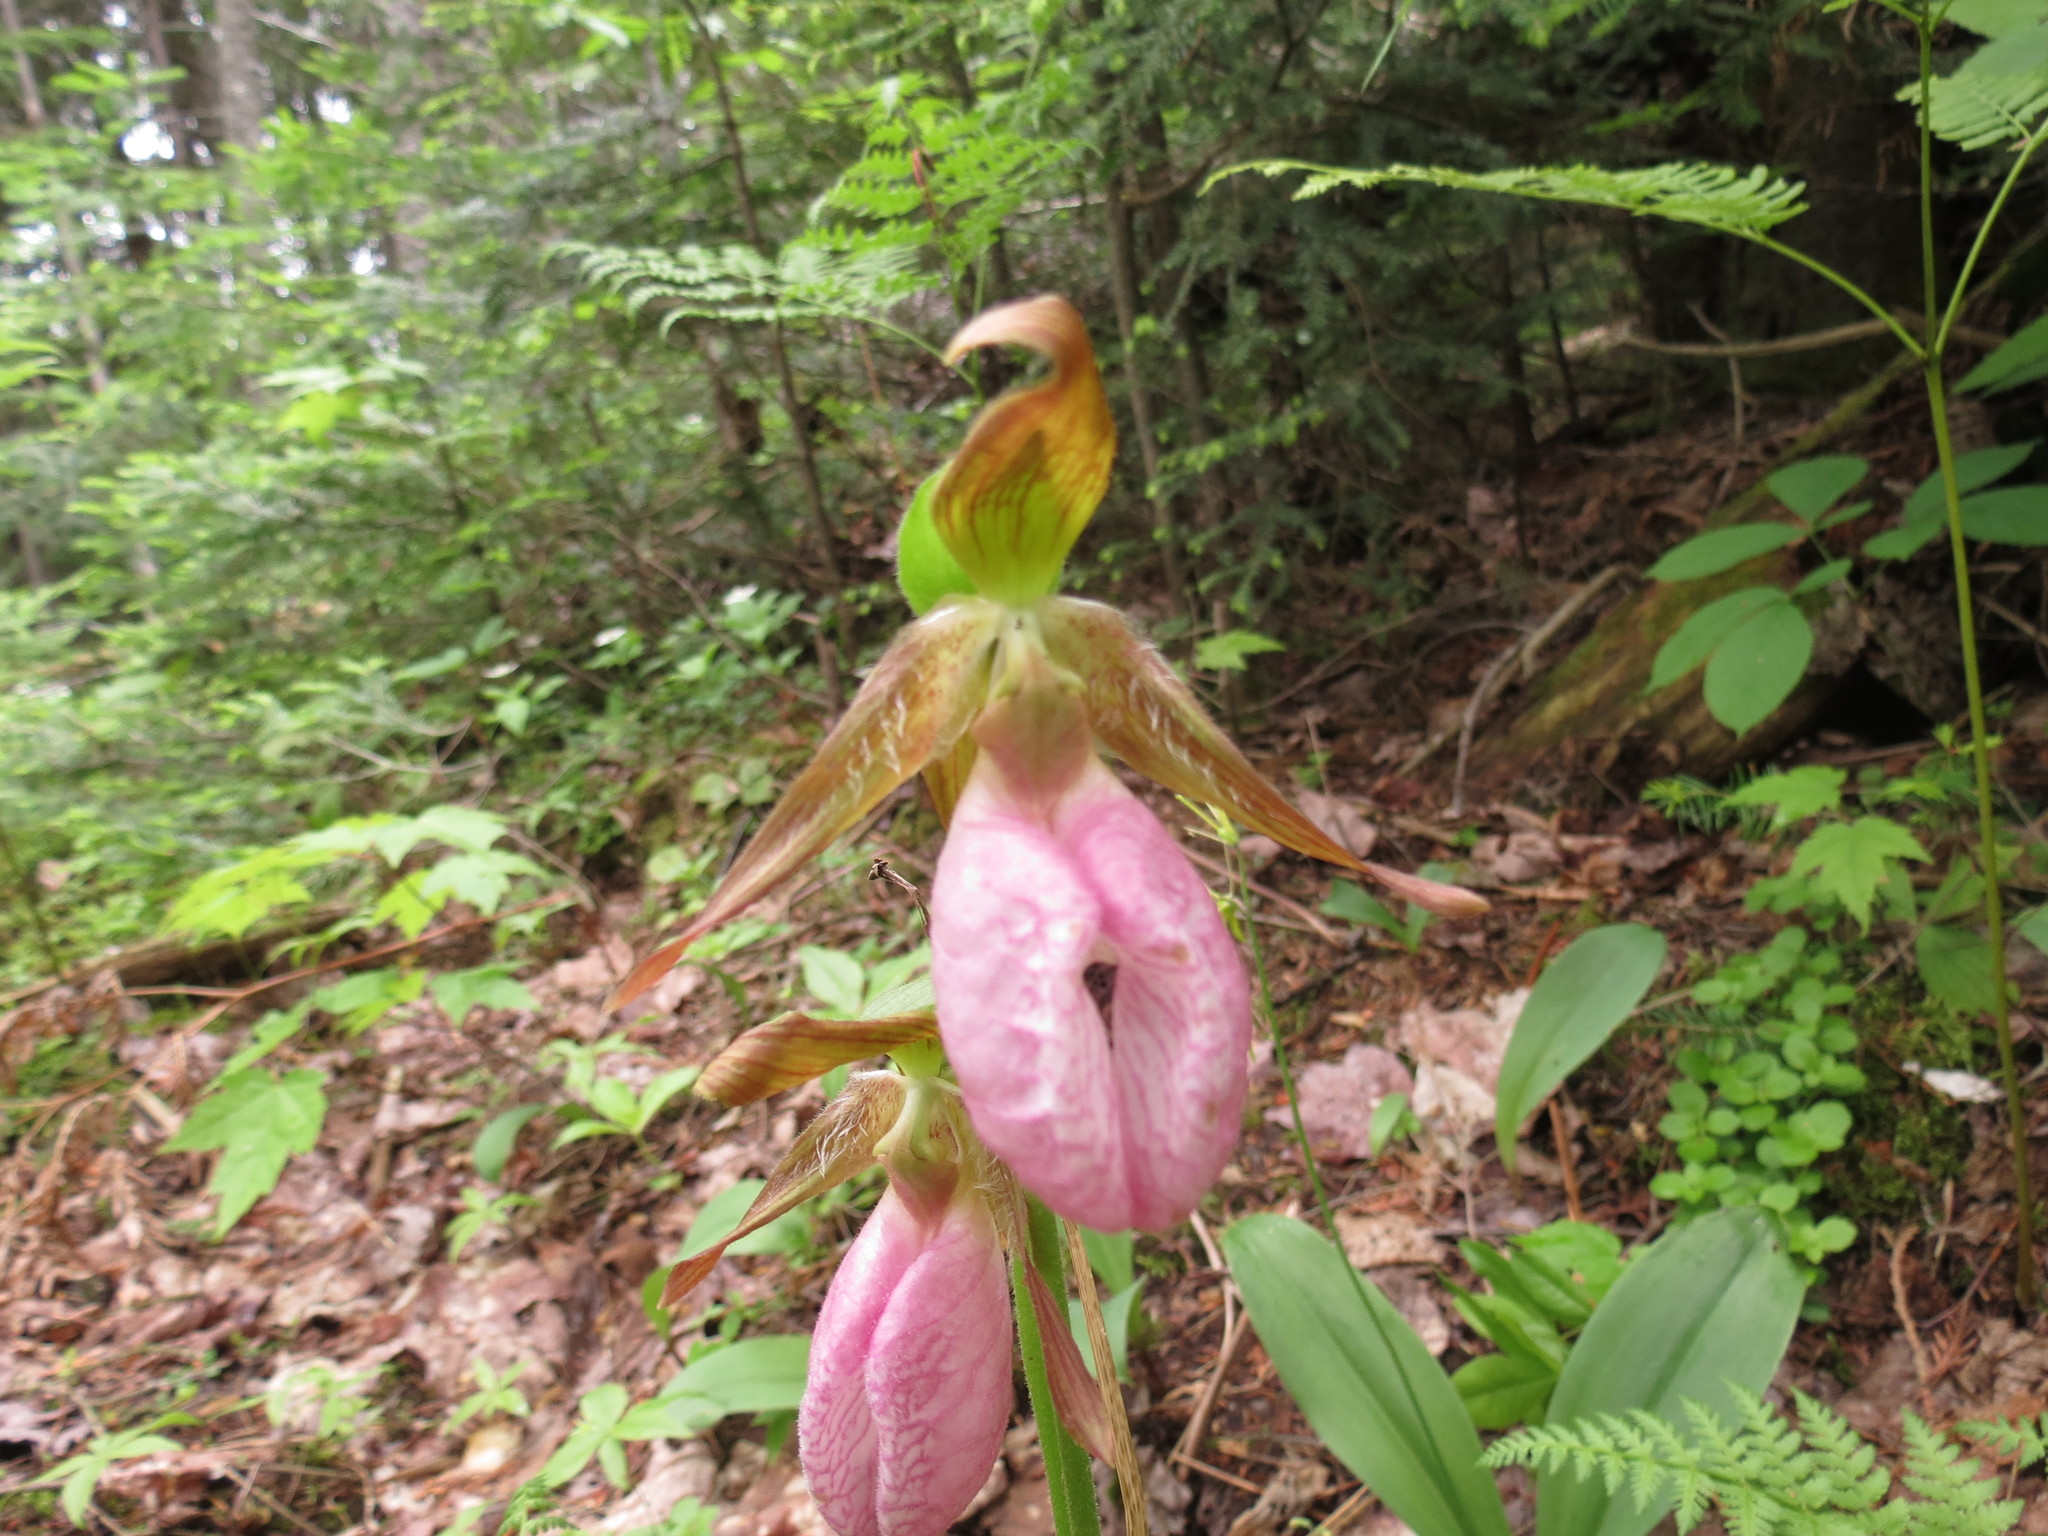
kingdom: Plantae
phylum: Tracheophyta
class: Liliopsida
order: Asparagales
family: Orchidaceae
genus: Cypripedium
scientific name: Cypripedium acaule
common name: Pink lady's-slipper
